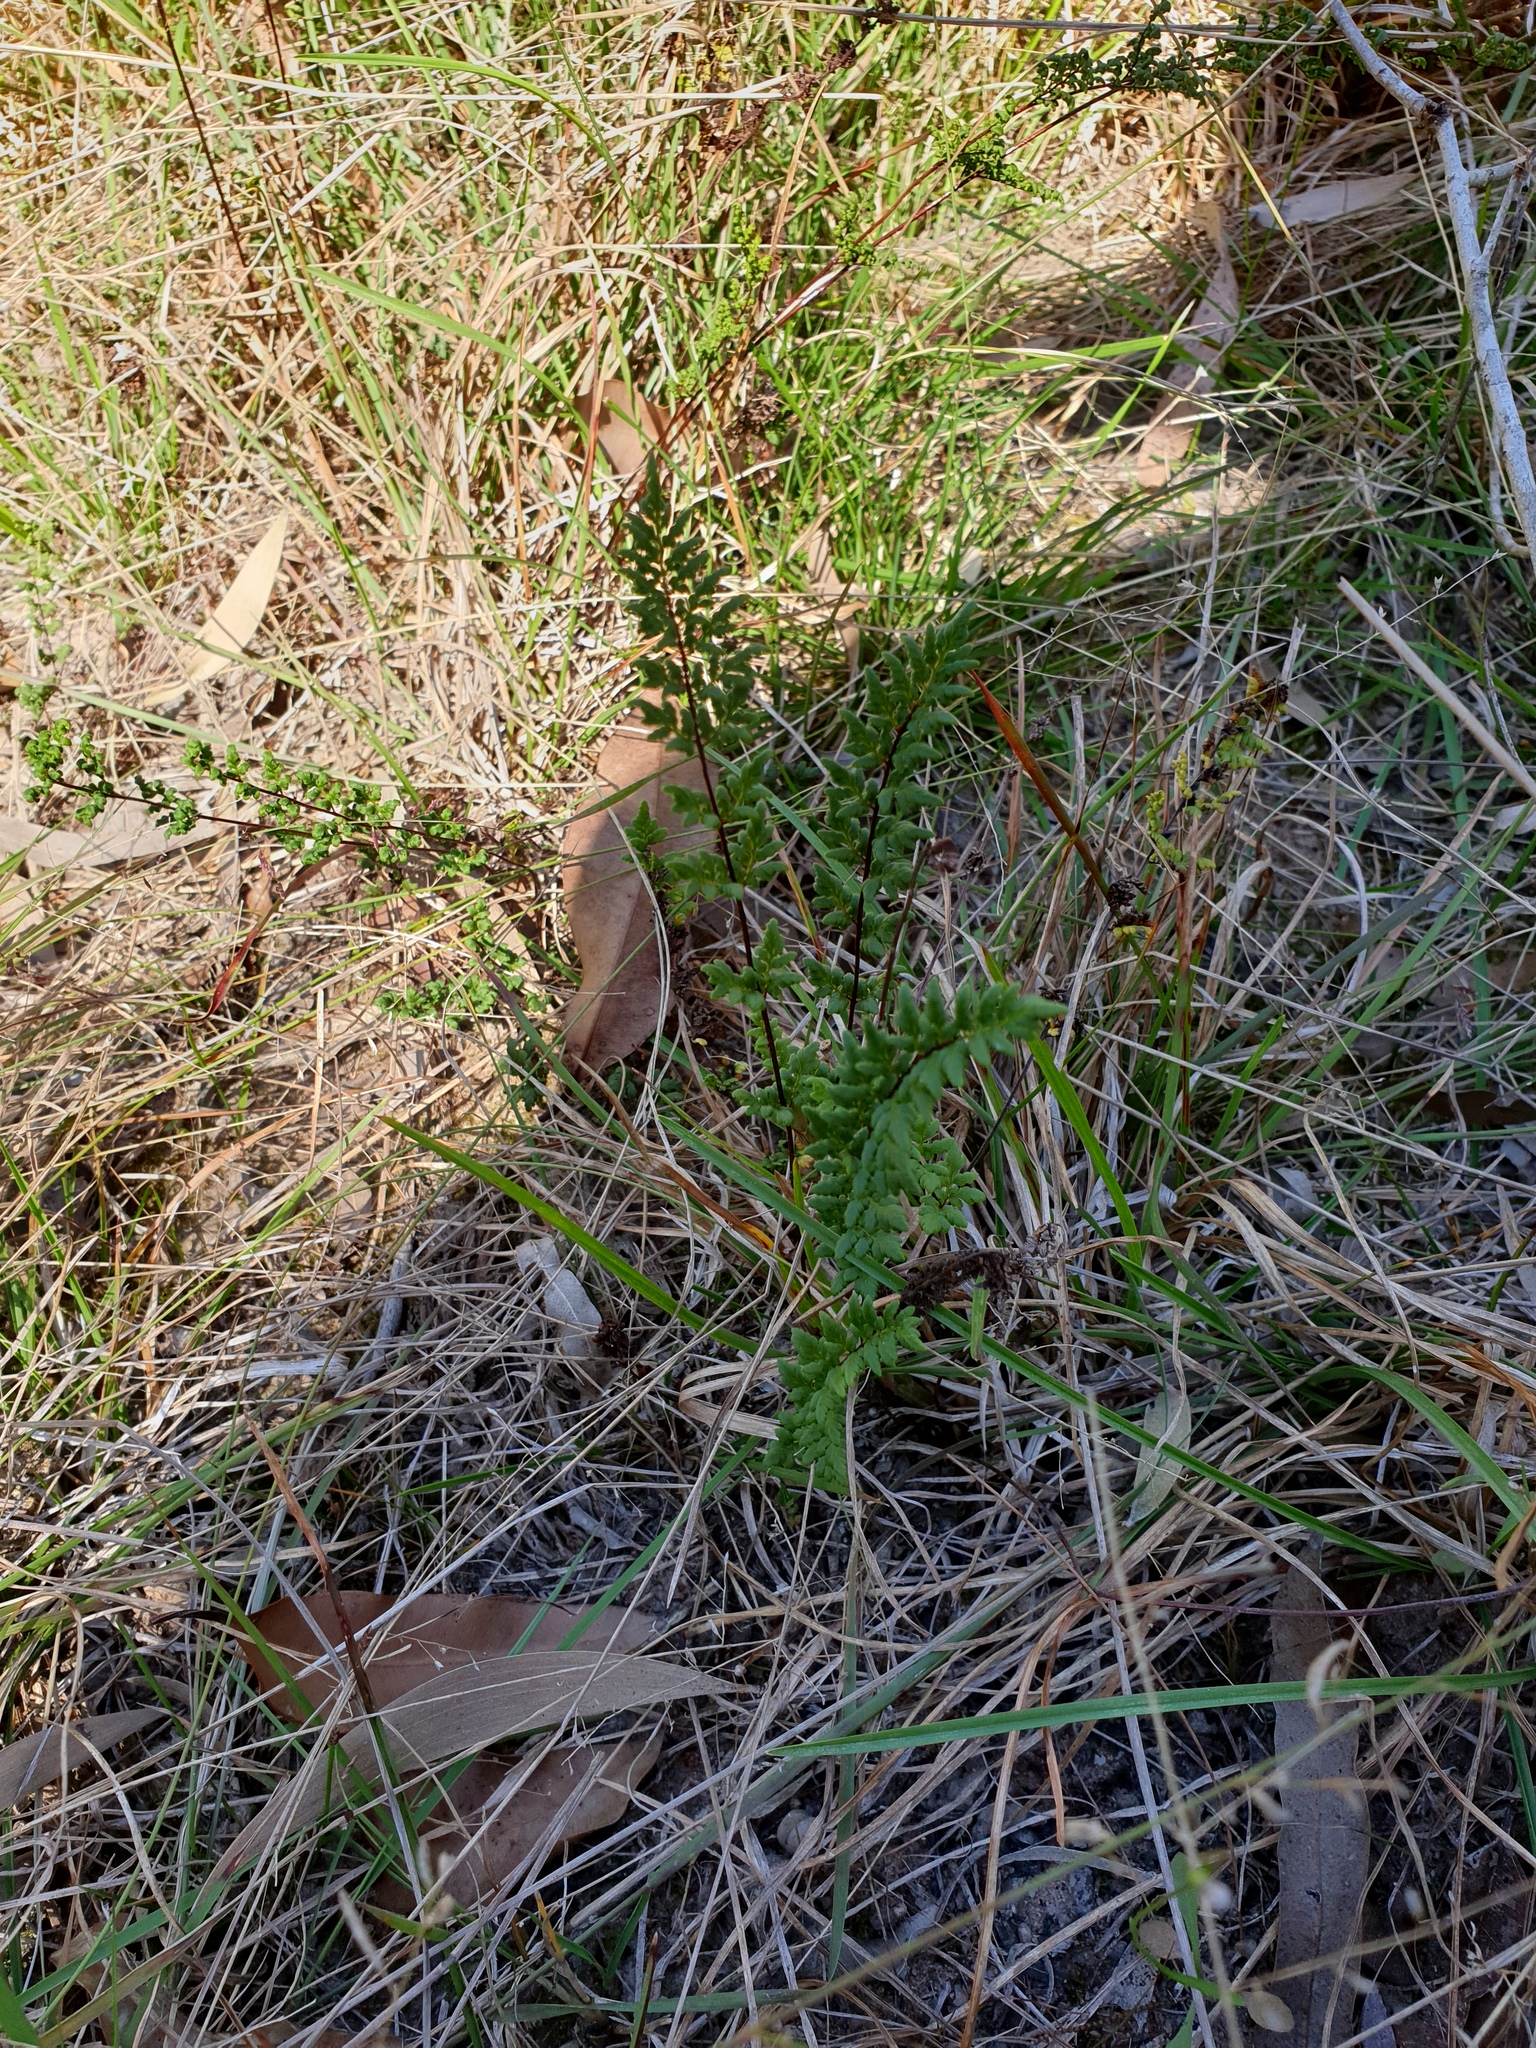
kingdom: Plantae
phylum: Tracheophyta
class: Polypodiopsida
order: Polypodiales
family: Pteridaceae
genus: Cheilanthes
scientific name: Cheilanthes sieberi
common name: Mulga fern
